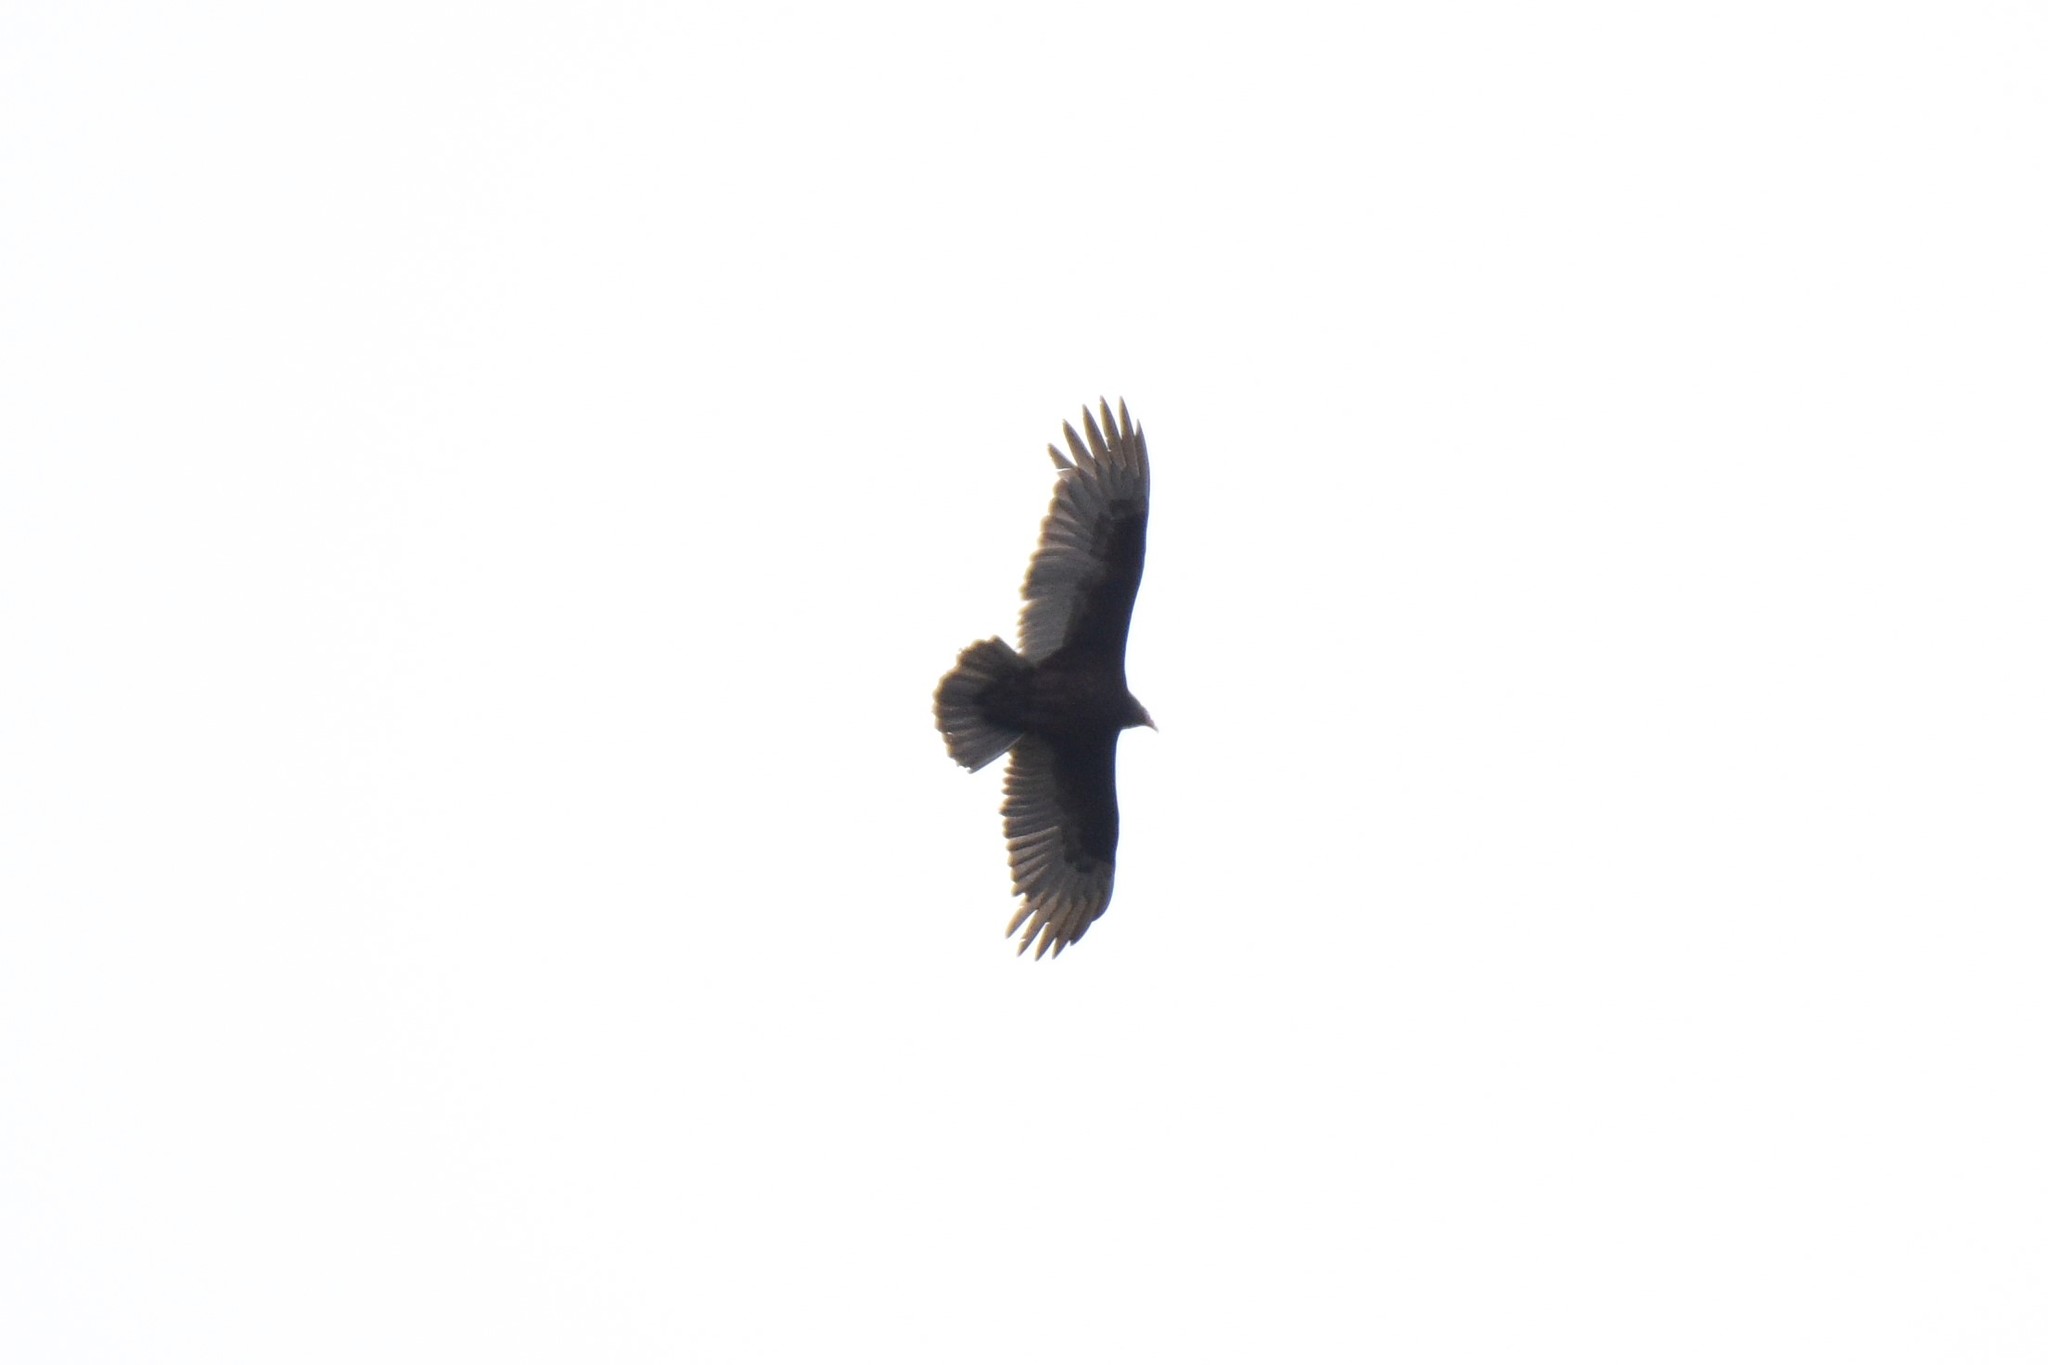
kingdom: Animalia
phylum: Chordata
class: Aves
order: Accipitriformes
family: Cathartidae
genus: Cathartes
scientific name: Cathartes aura
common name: Turkey vulture
